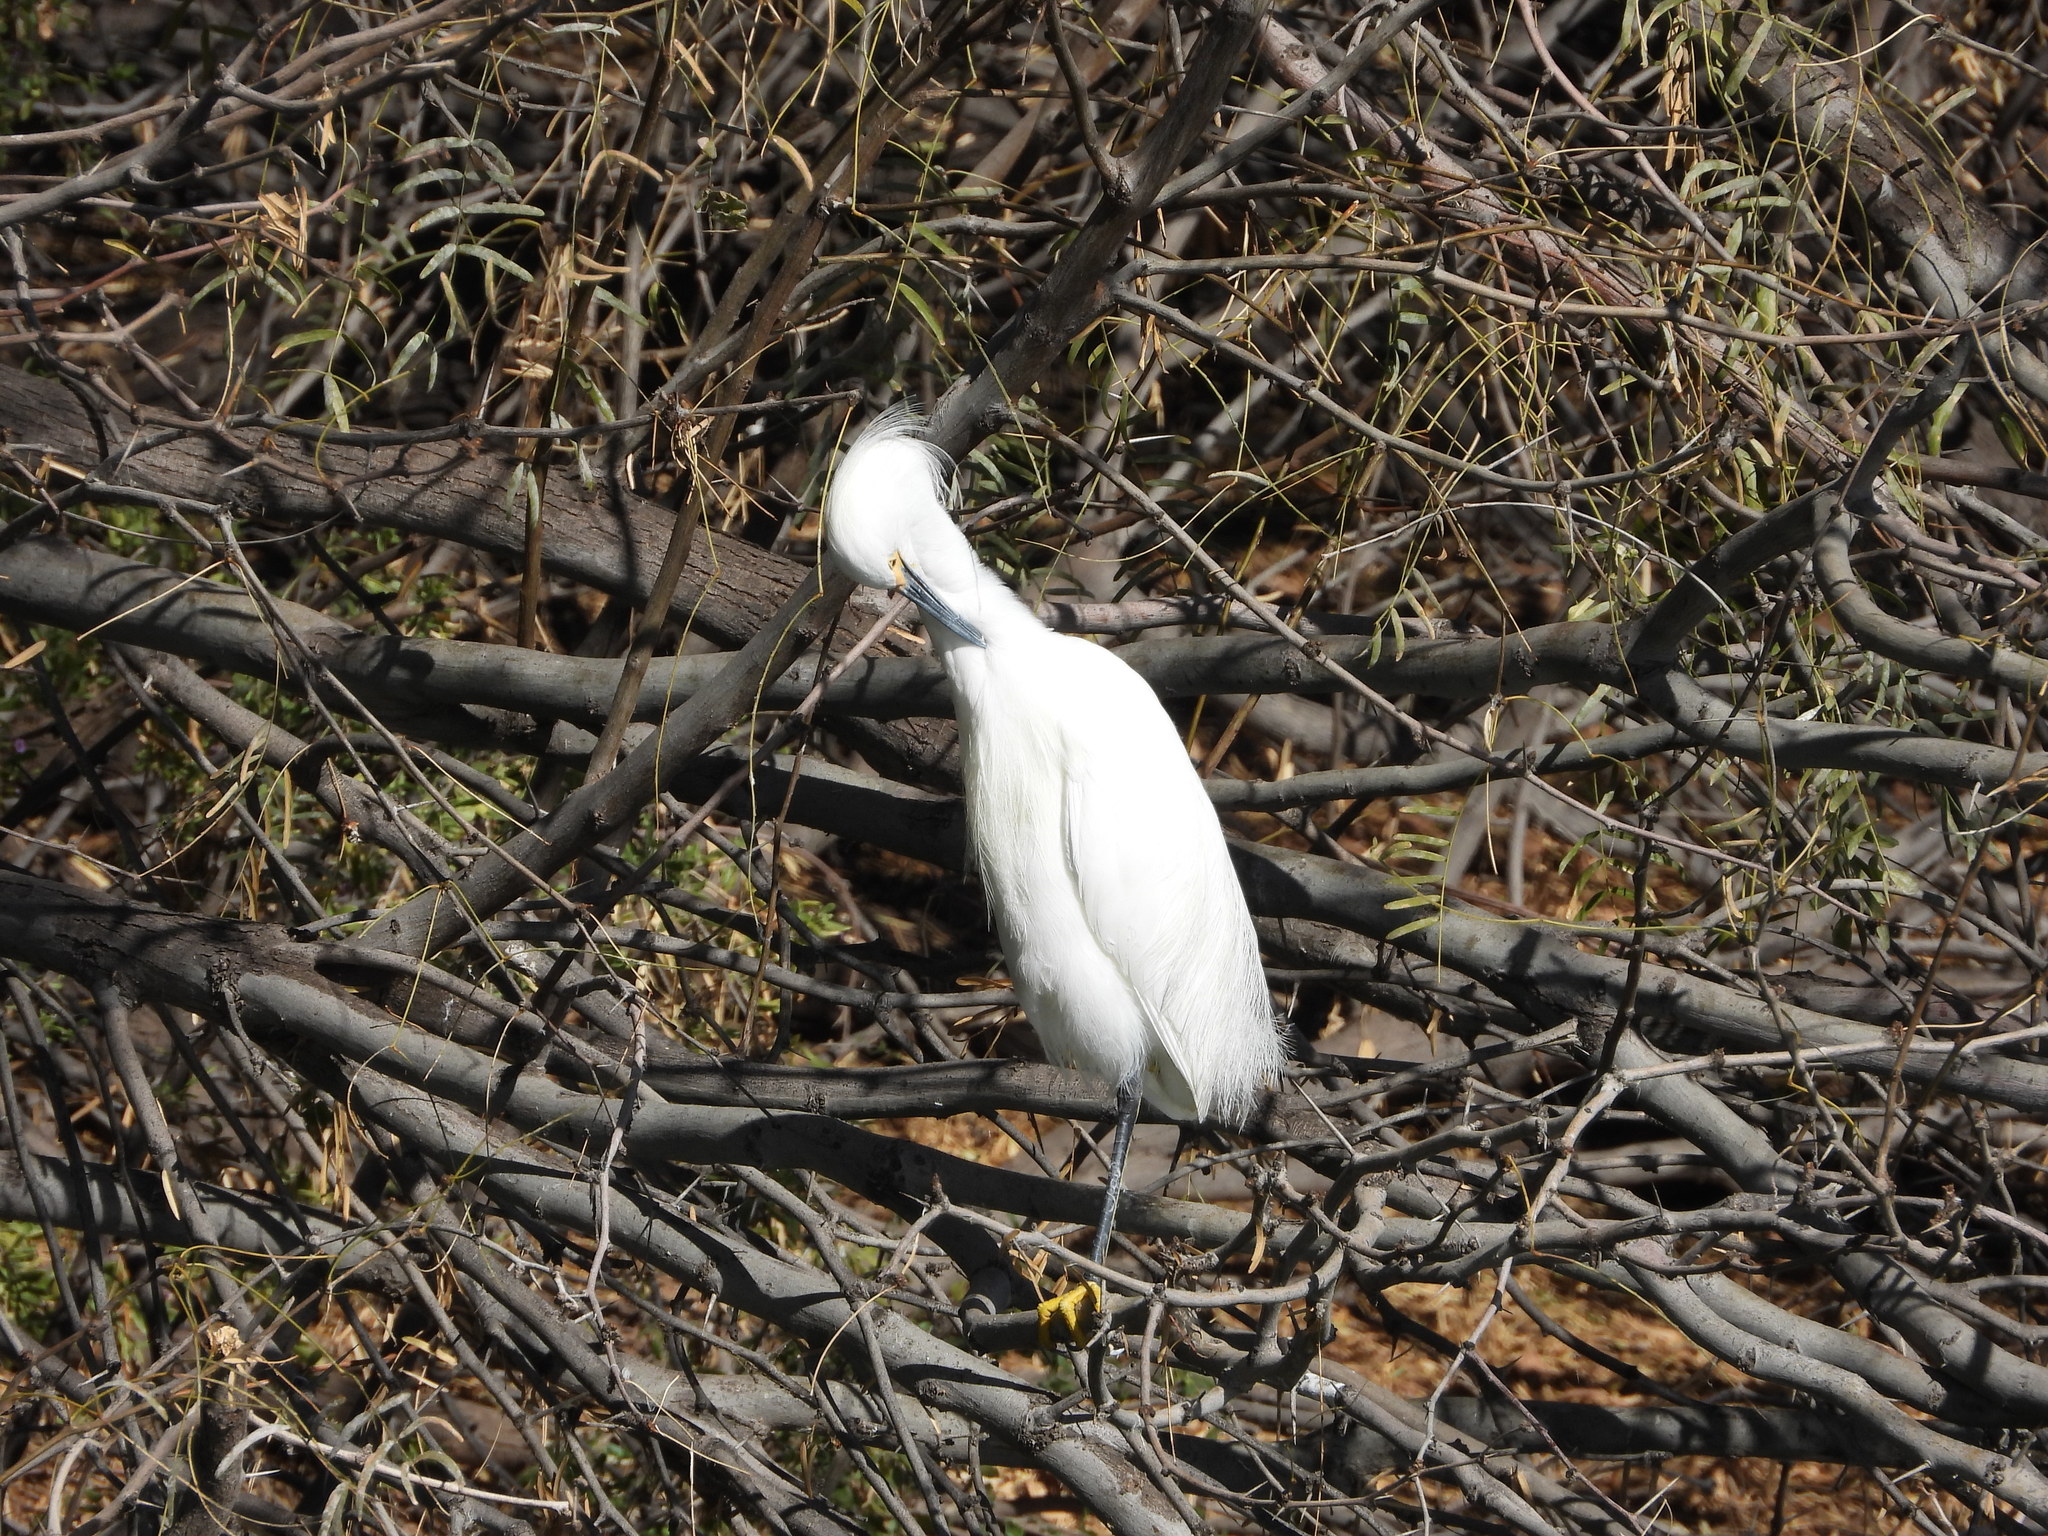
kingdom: Animalia
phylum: Chordata
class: Aves
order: Pelecaniformes
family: Ardeidae
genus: Egretta
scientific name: Egretta thula
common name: Snowy egret
